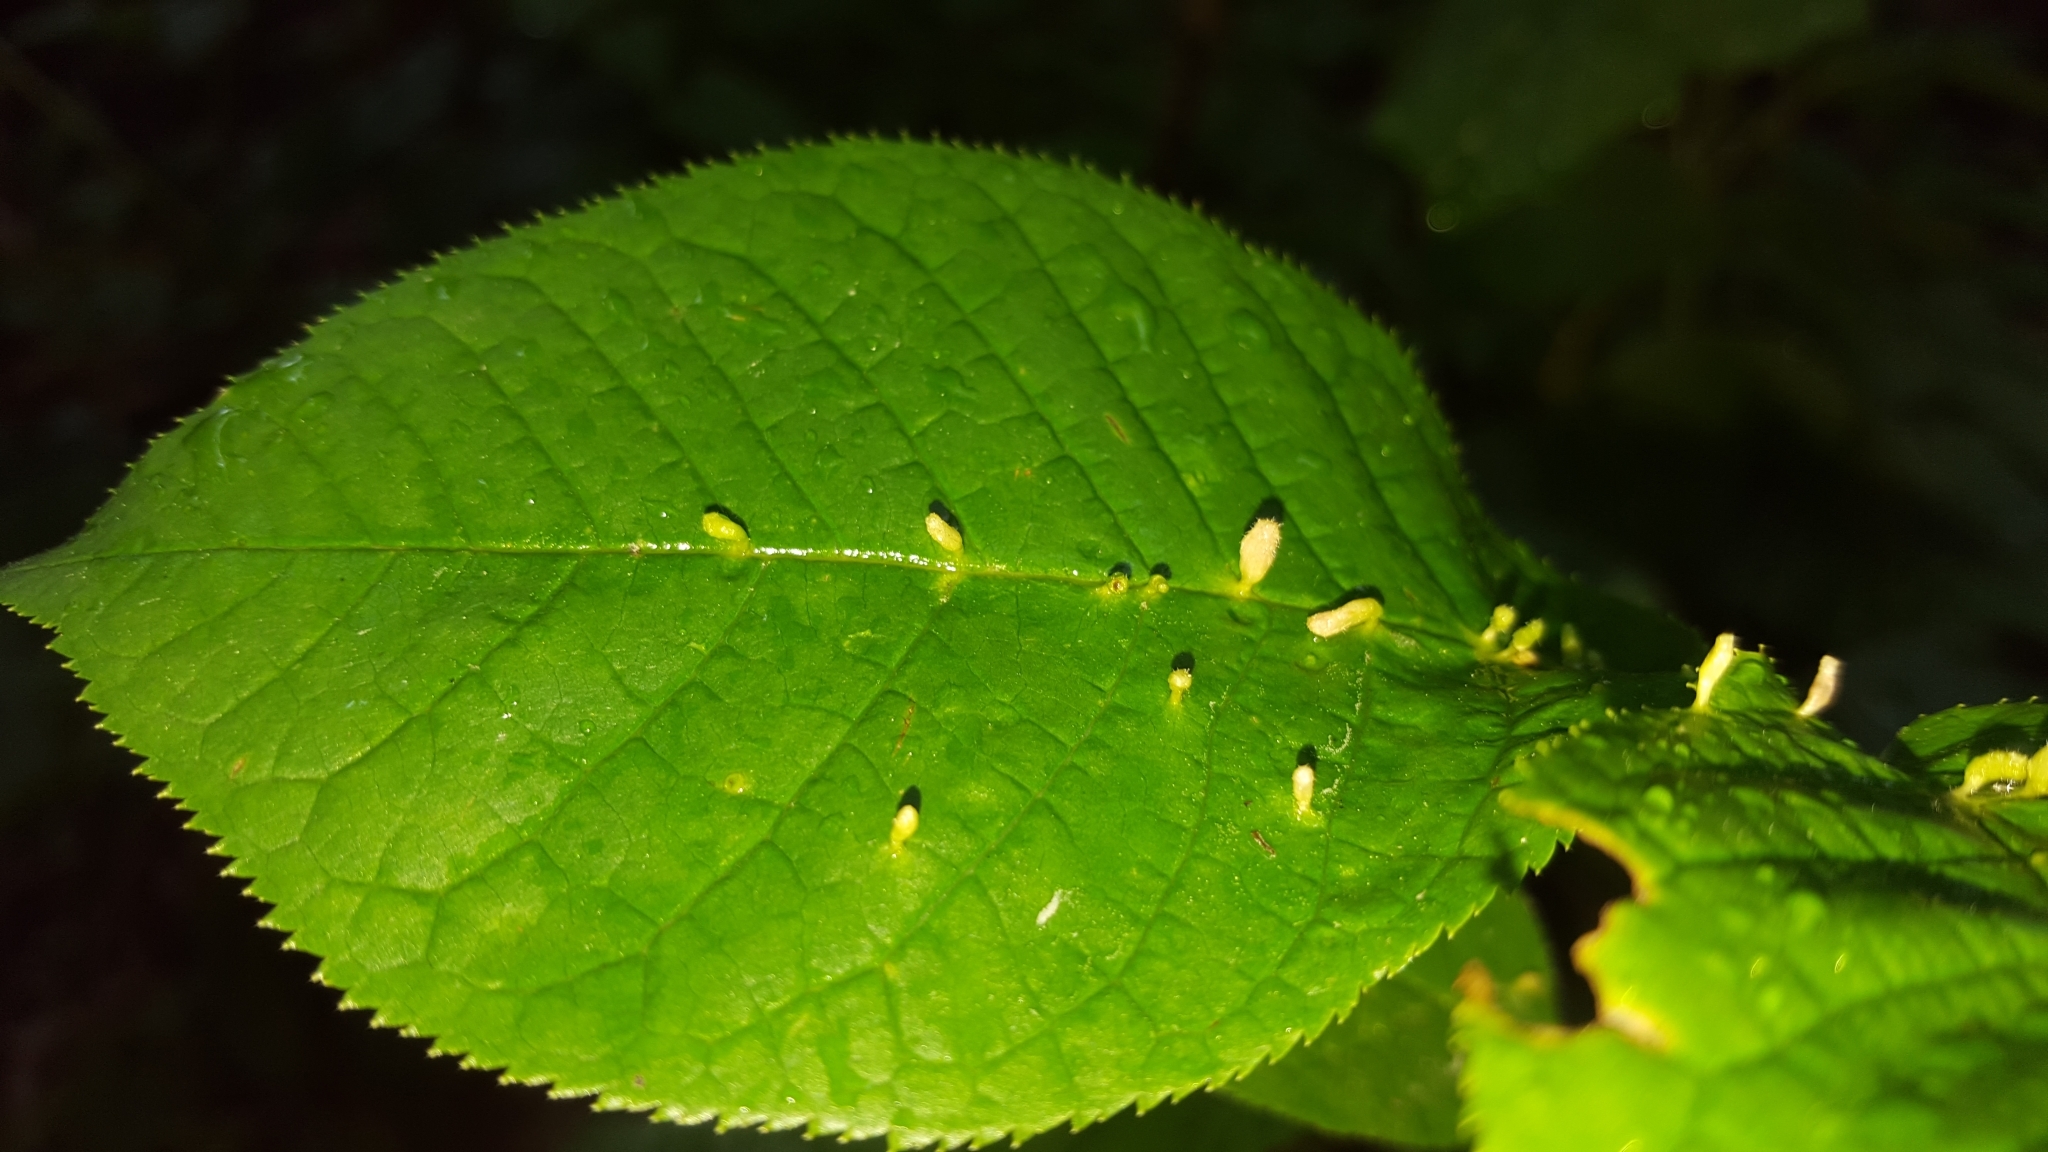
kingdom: Animalia
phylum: Arthropoda
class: Arachnida
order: Trombidiformes
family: Eriophyidae
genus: Phyllocoptes
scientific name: Phyllocoptes eupadi
